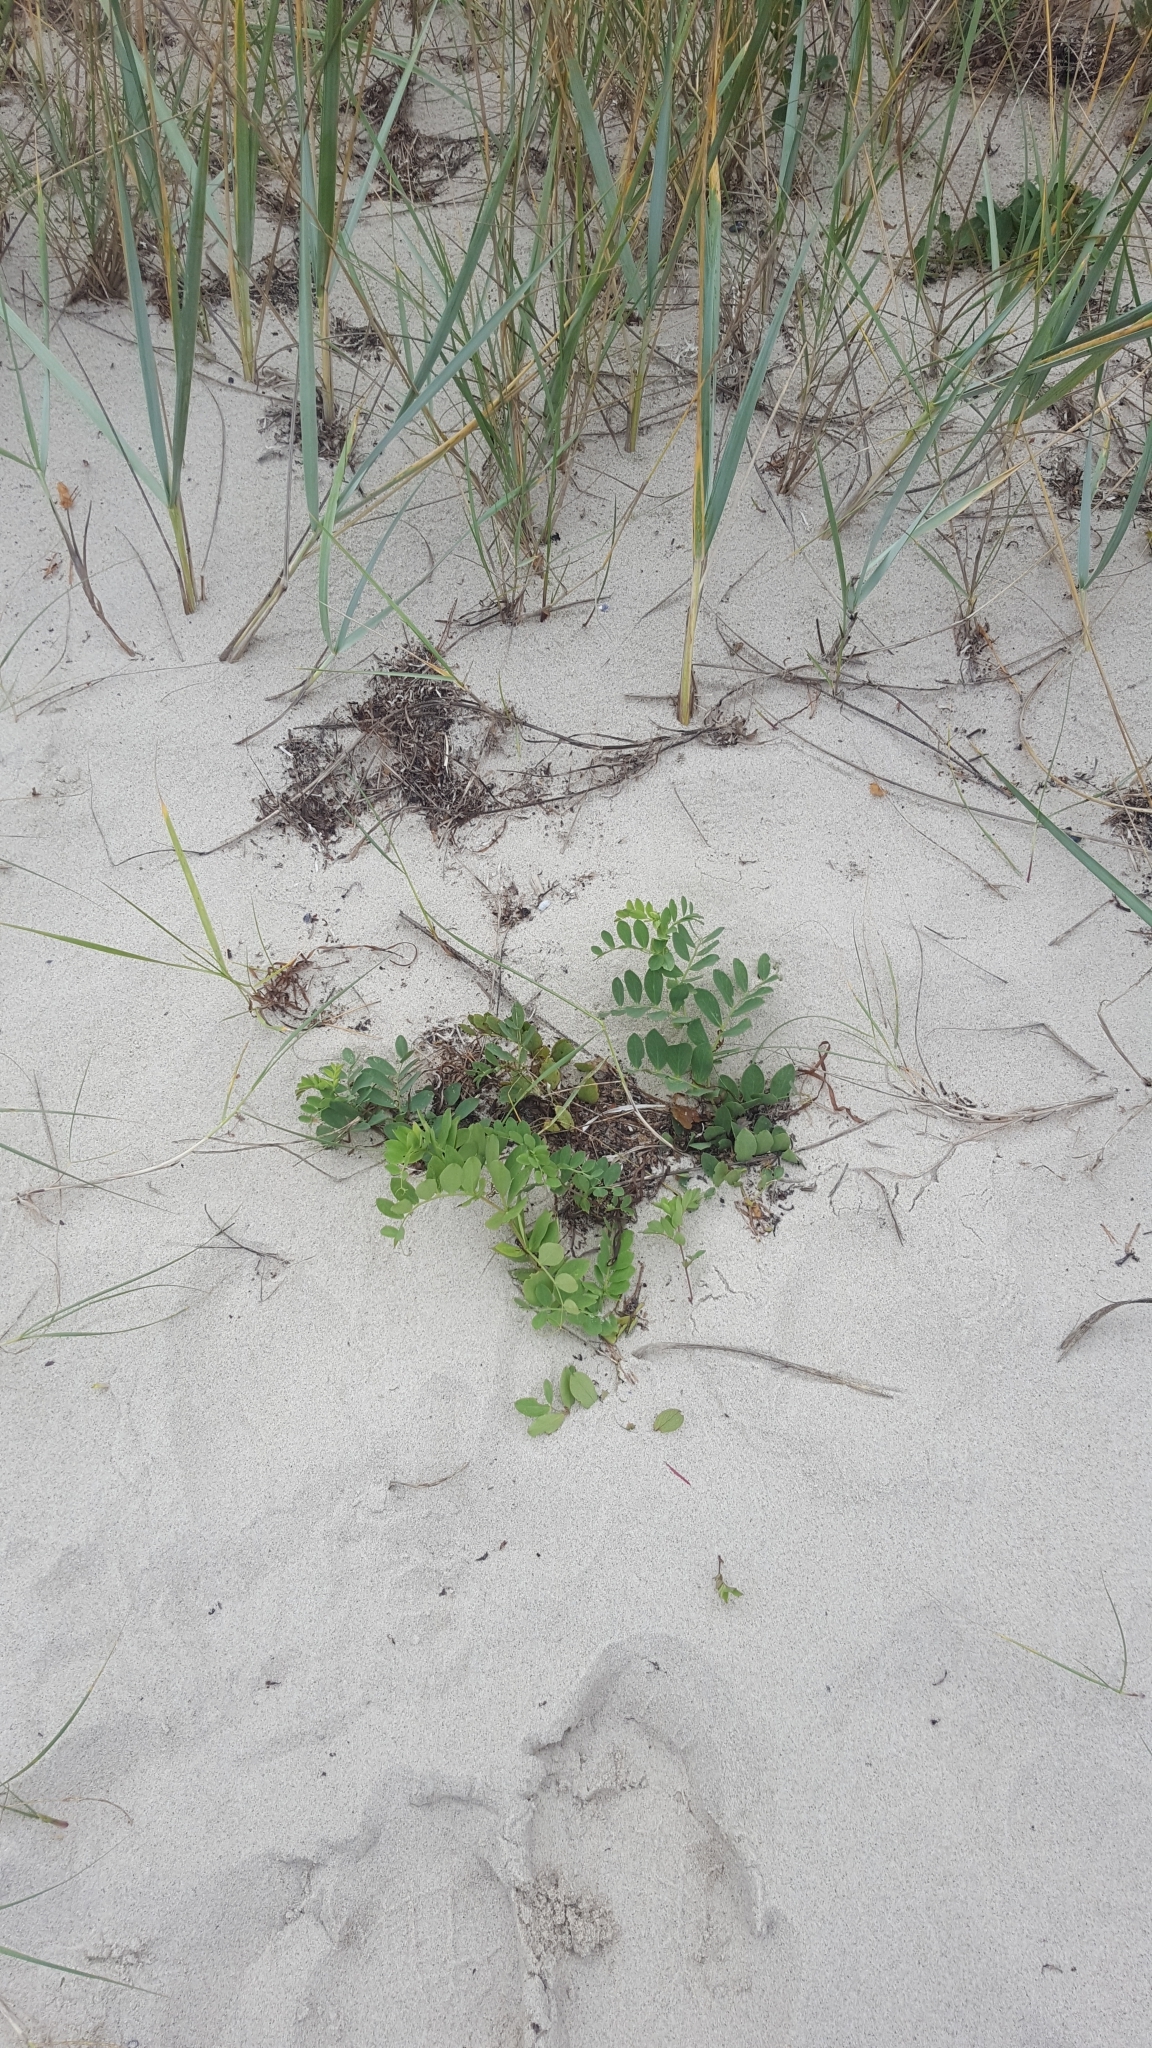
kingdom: Plantae
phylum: Tracheophyta
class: Magnoliopsida
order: Fabales
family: Fabaceae
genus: Lathyrus
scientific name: Lathyrus japonicus
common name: Sea pea
